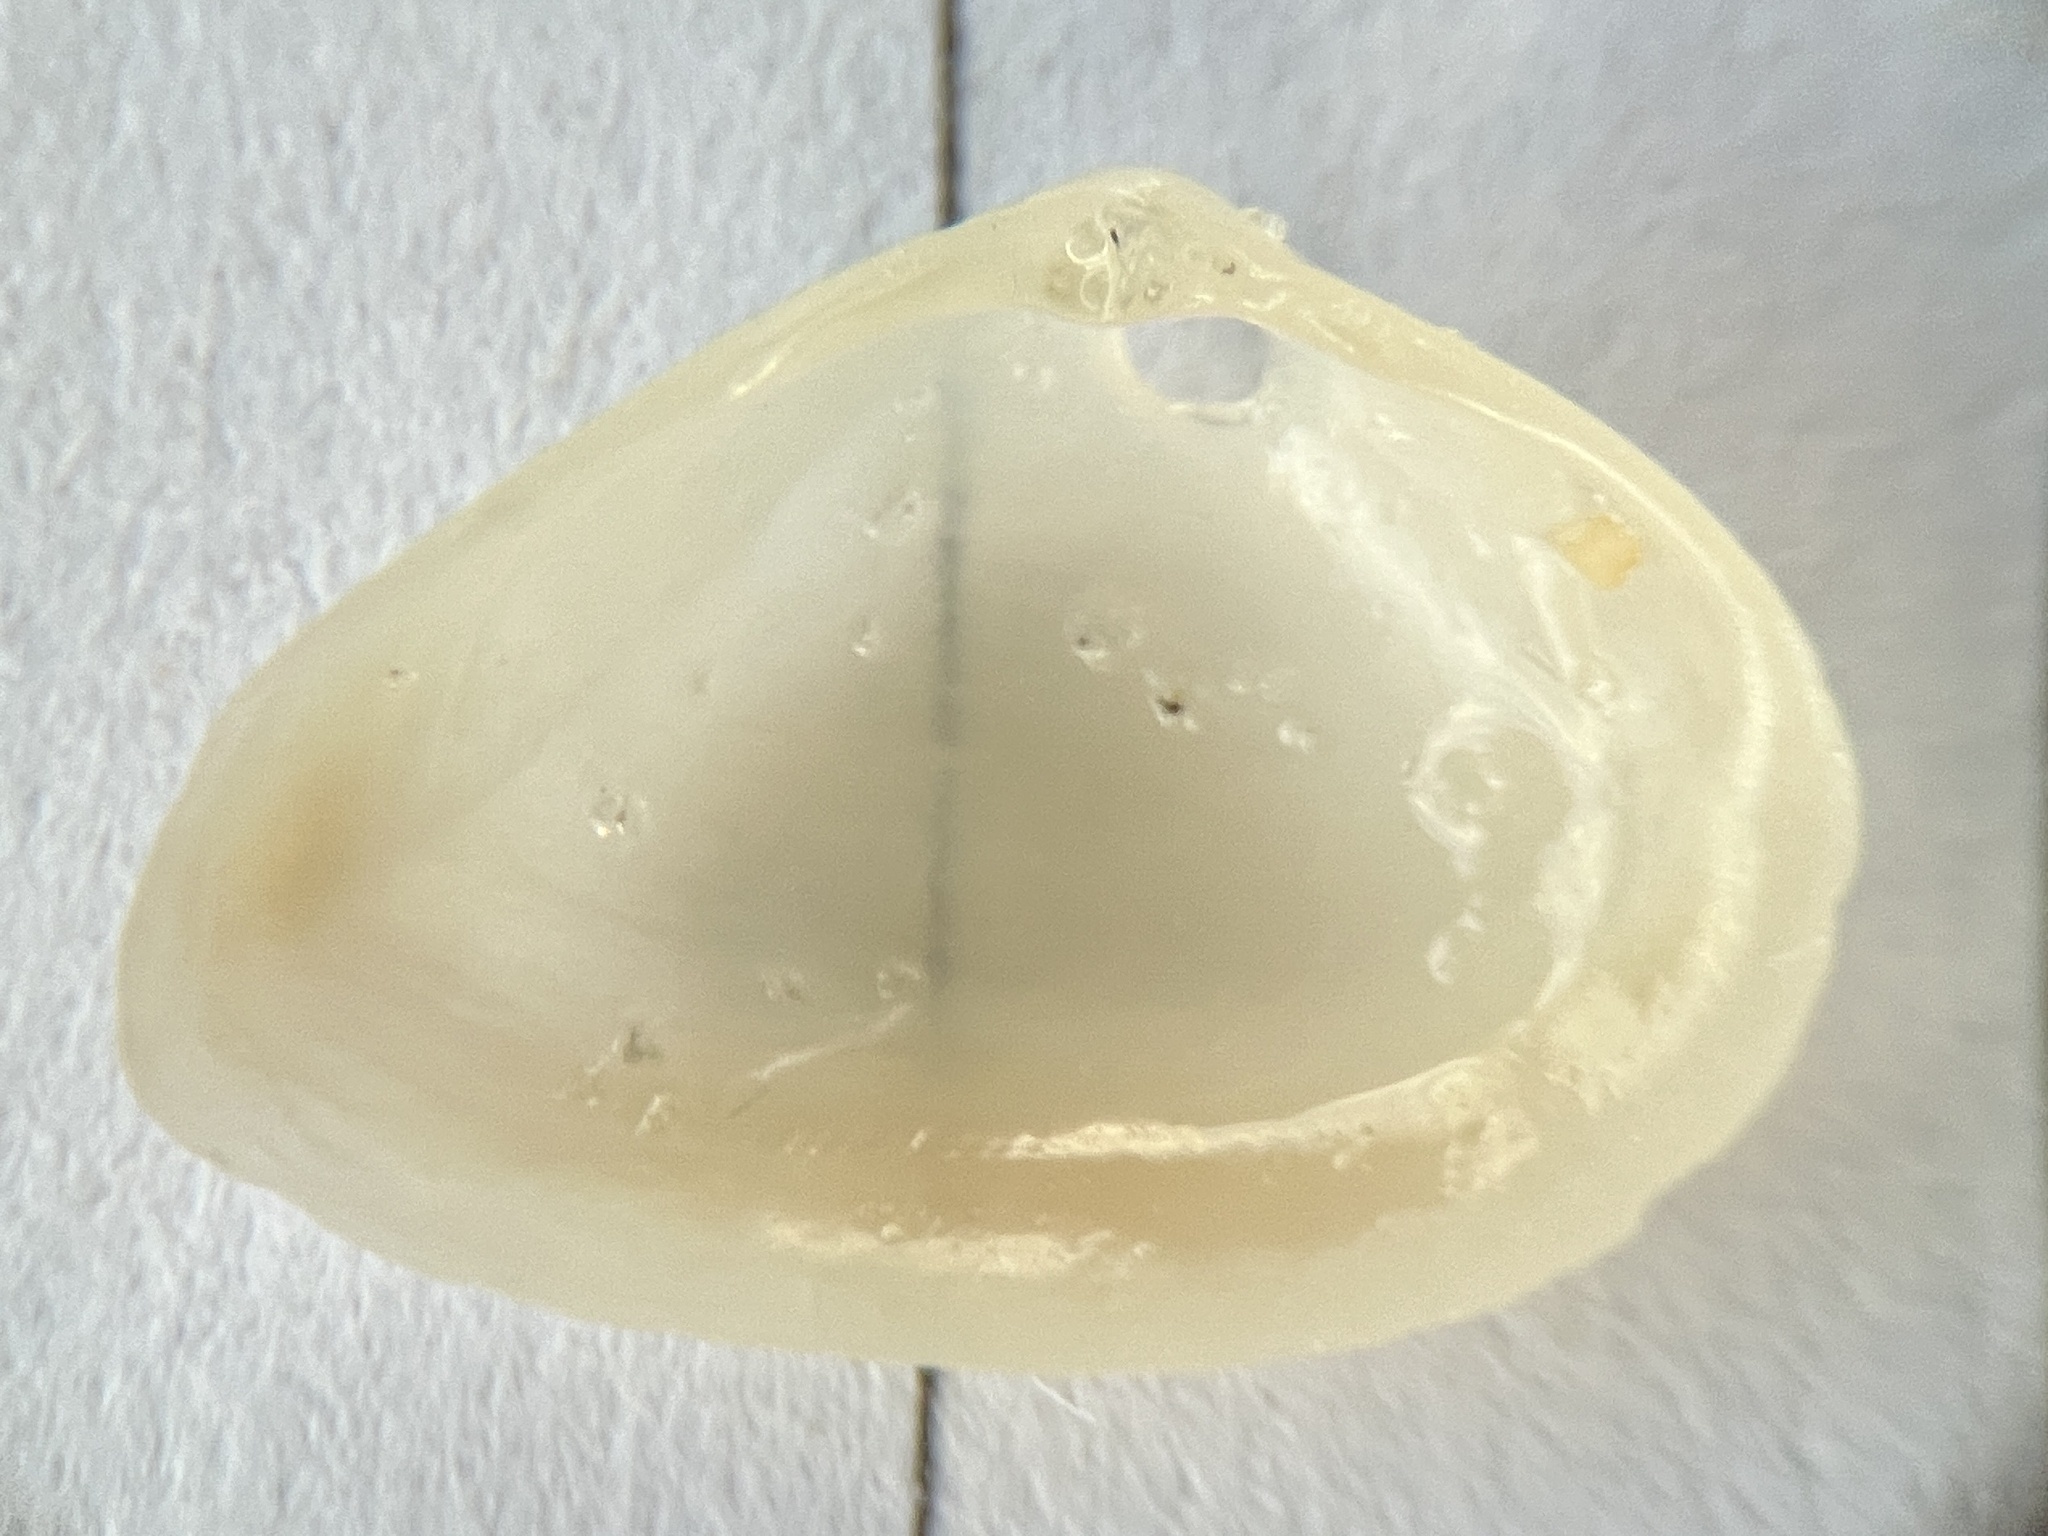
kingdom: Animalia
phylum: Mollusca
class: Bivalvia
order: Venerida
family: Mactridae
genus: Mulinia
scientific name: Mulinia lateralis
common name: Dwarf surfclam
